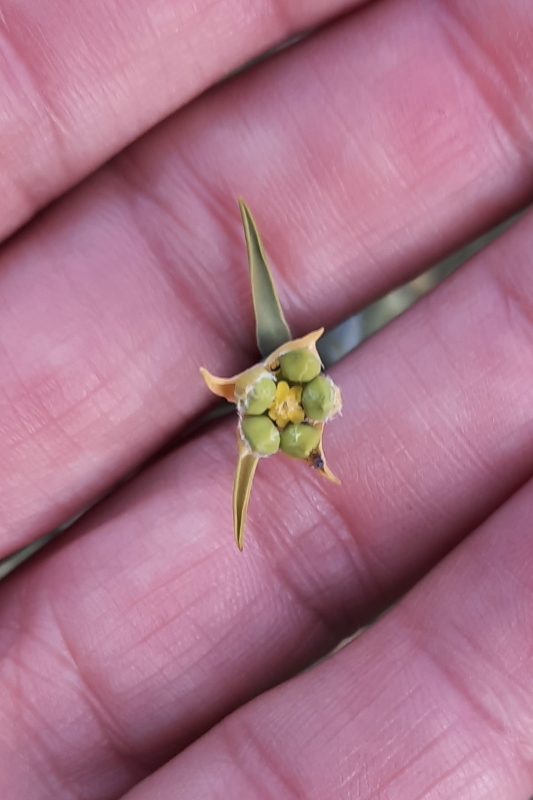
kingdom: Plantae
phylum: Tracheophyta
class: Magnoliopsida
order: Malpighiales
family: Euphorbiaceae
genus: Euphorbia
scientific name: Euphorbia mauritanica
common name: Jackal's-food
